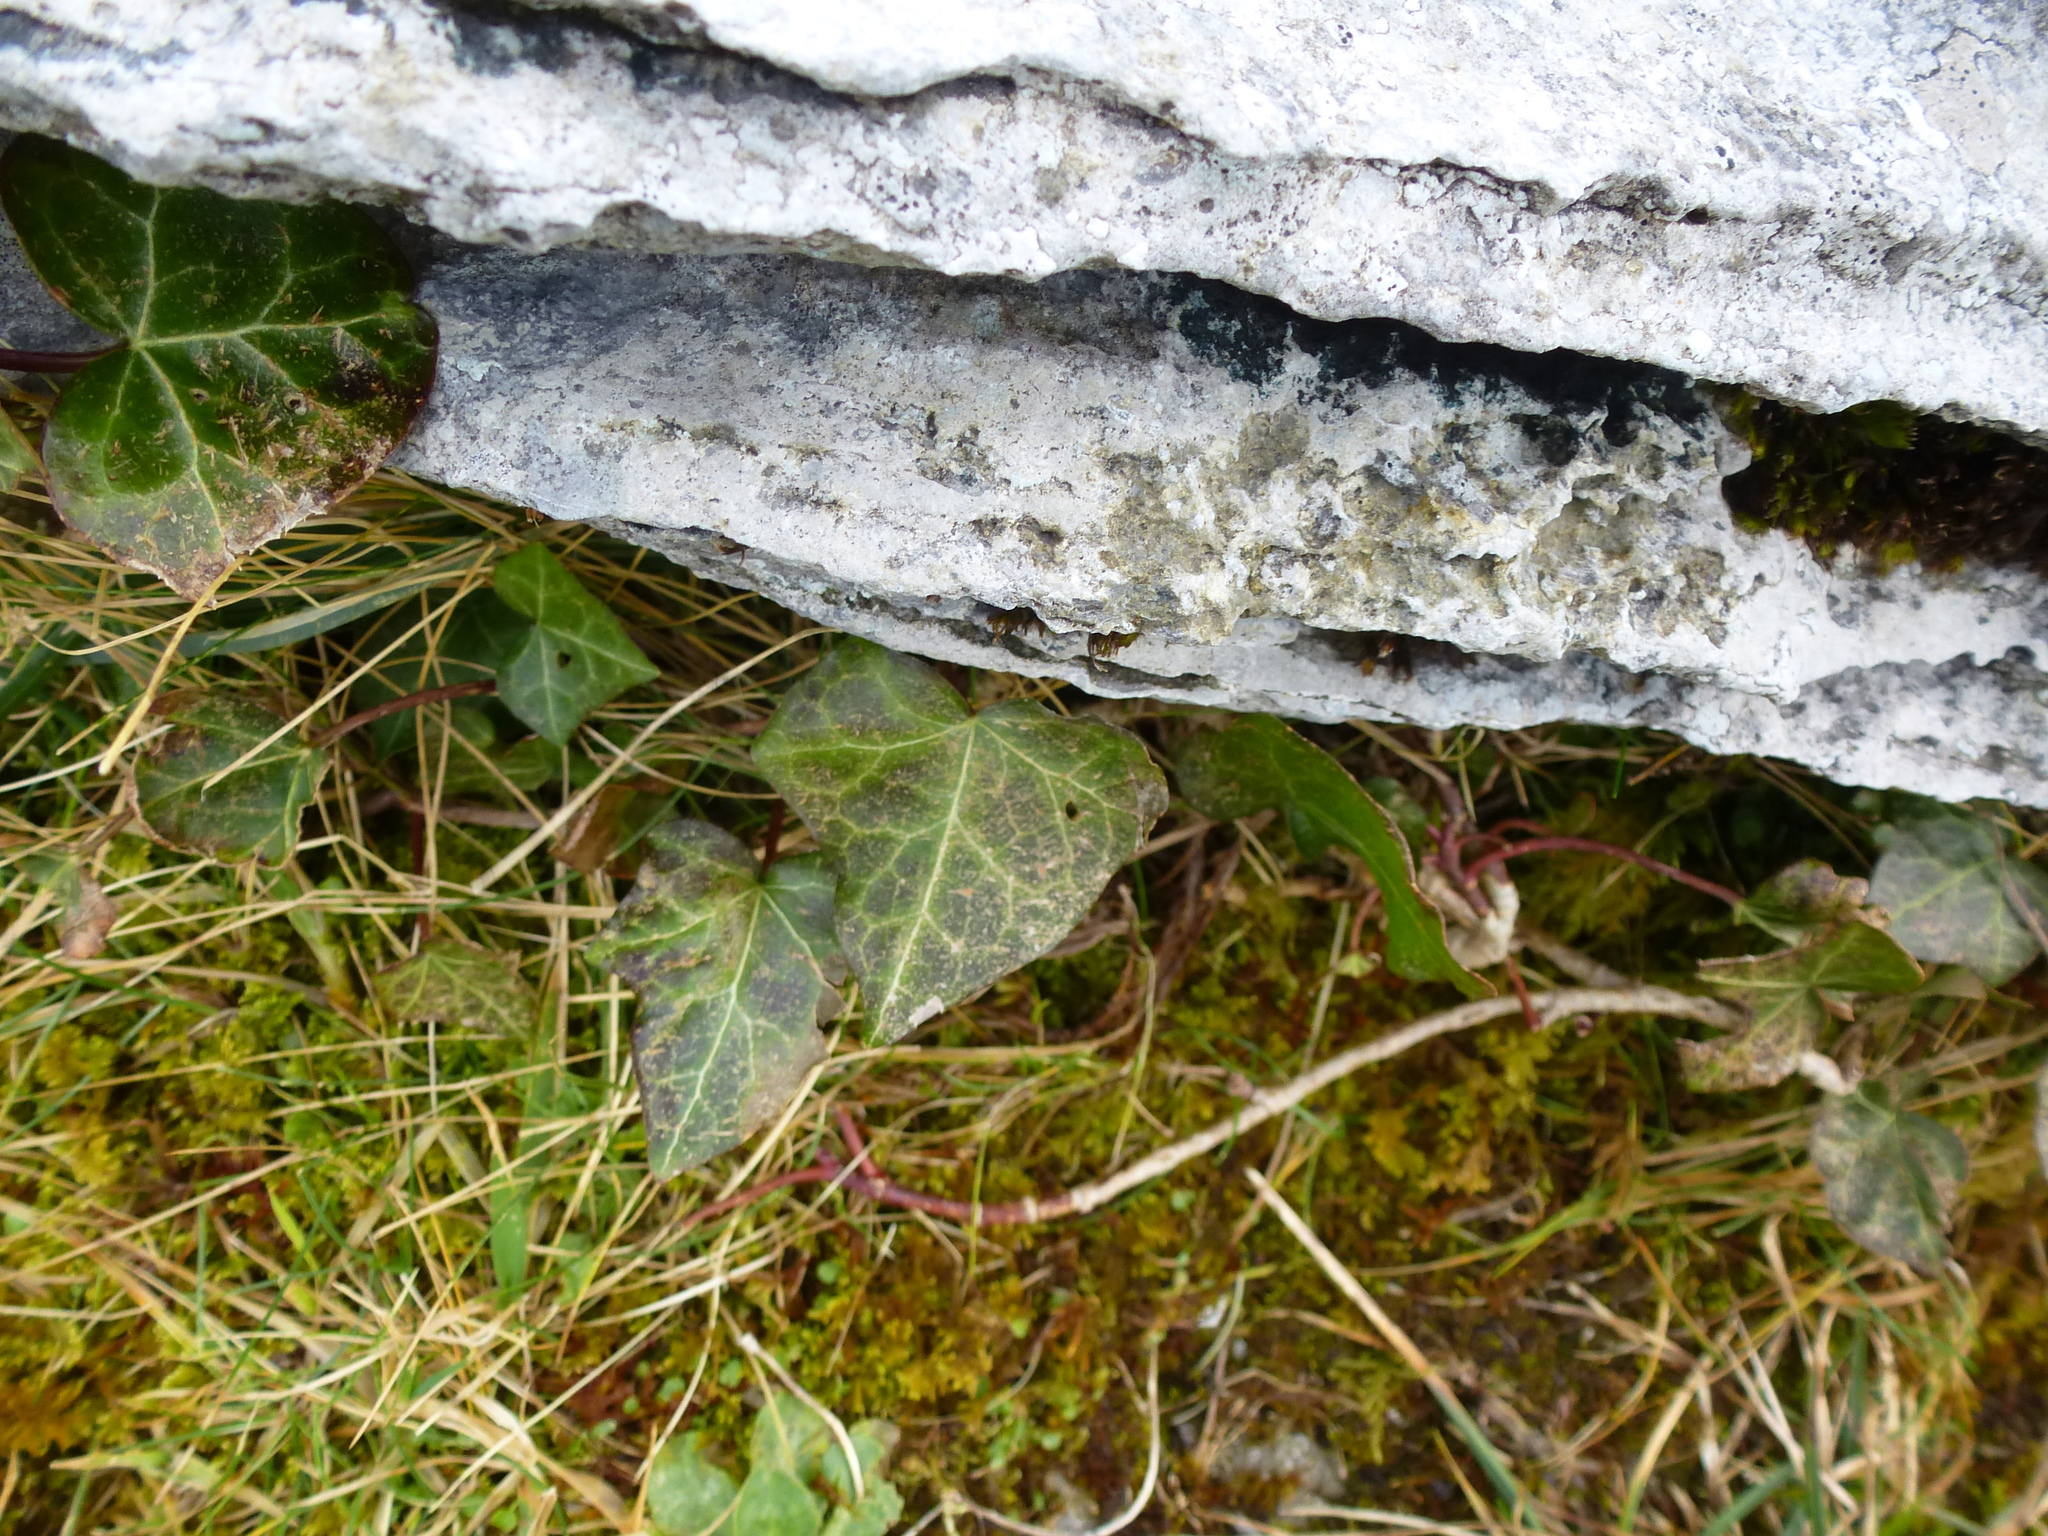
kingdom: Plantae
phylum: Tracheophyta
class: Magnoliopsida
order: Apiales
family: Araliaceae
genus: Hedera
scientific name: Hedera helix
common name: Ivy
